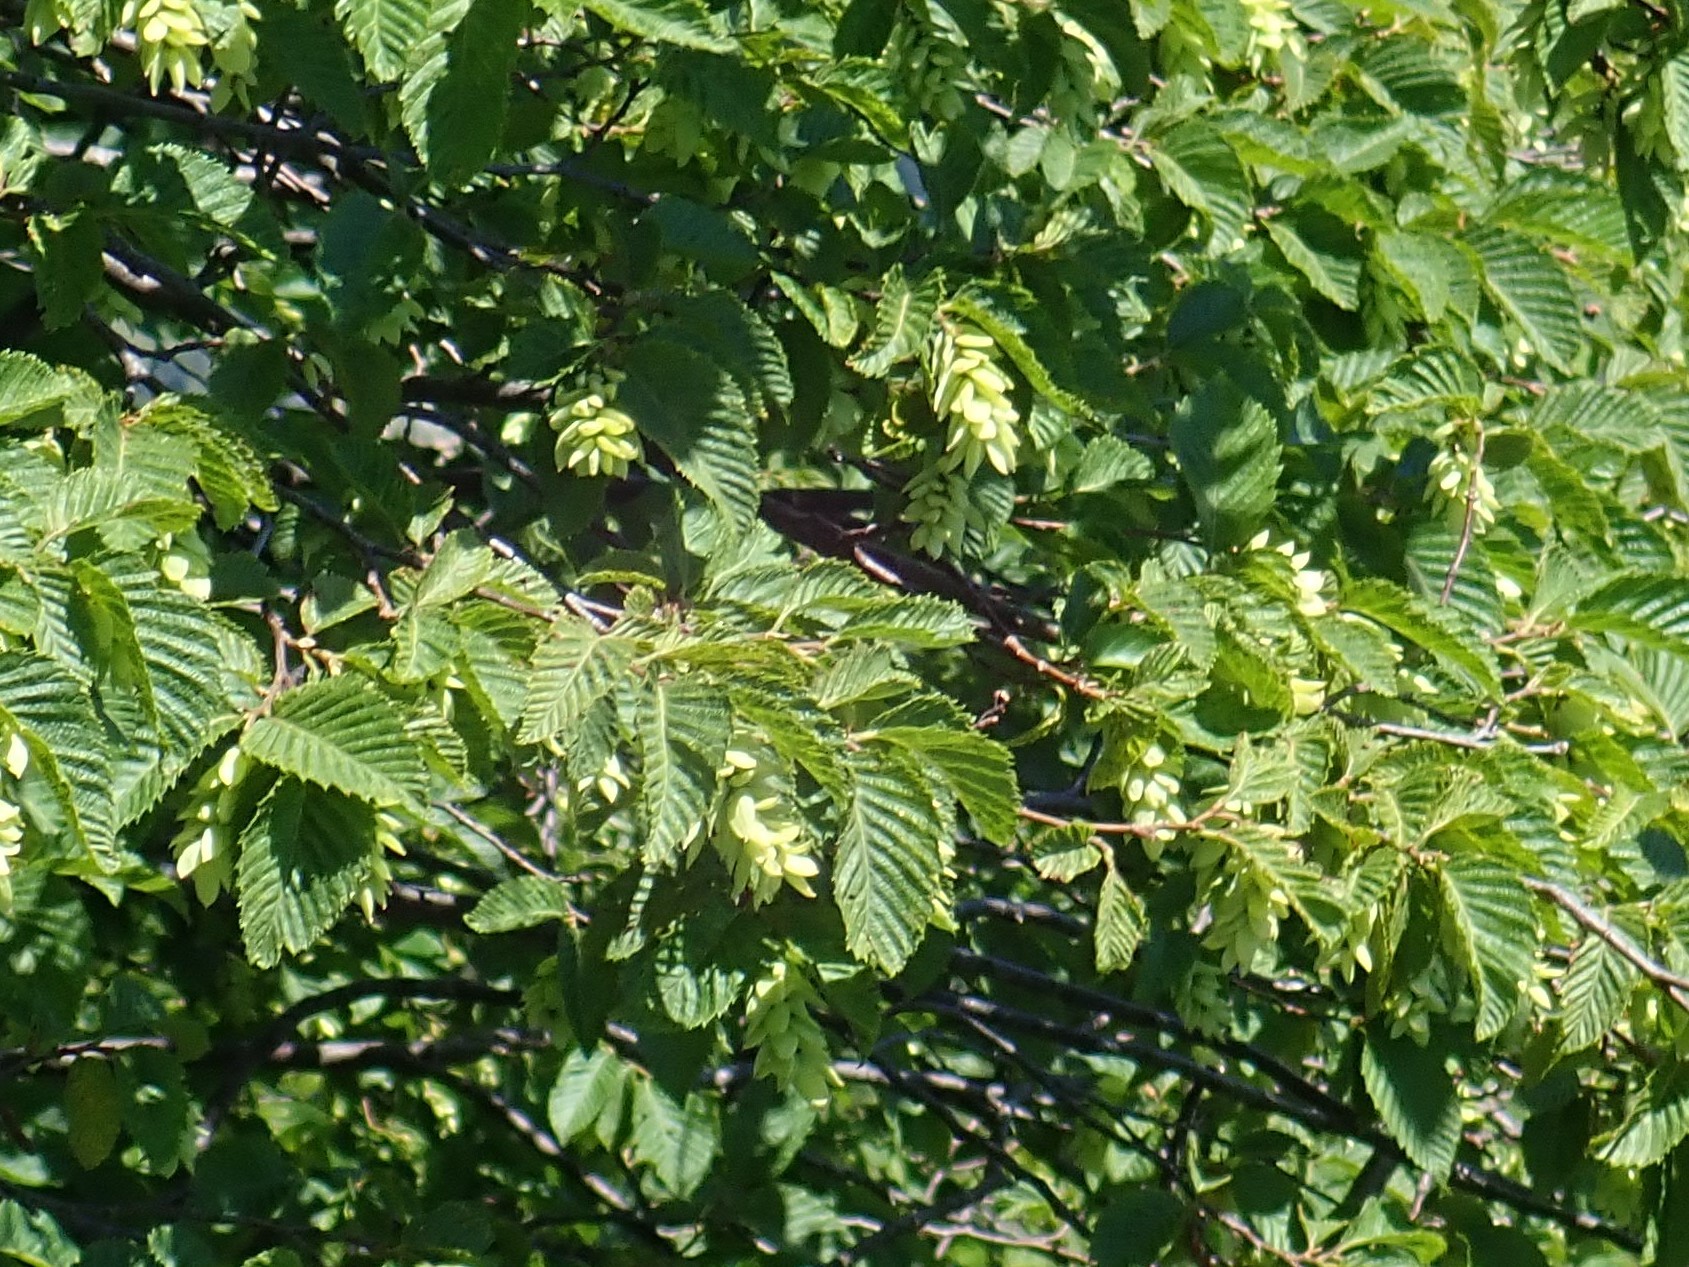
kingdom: Plantae
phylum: Tracheophyta
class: Magnoliopsida
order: Fagales
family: Betulaceae
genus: Ostrya
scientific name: Ostrya carpinifolia
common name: European hop-hornbeam
